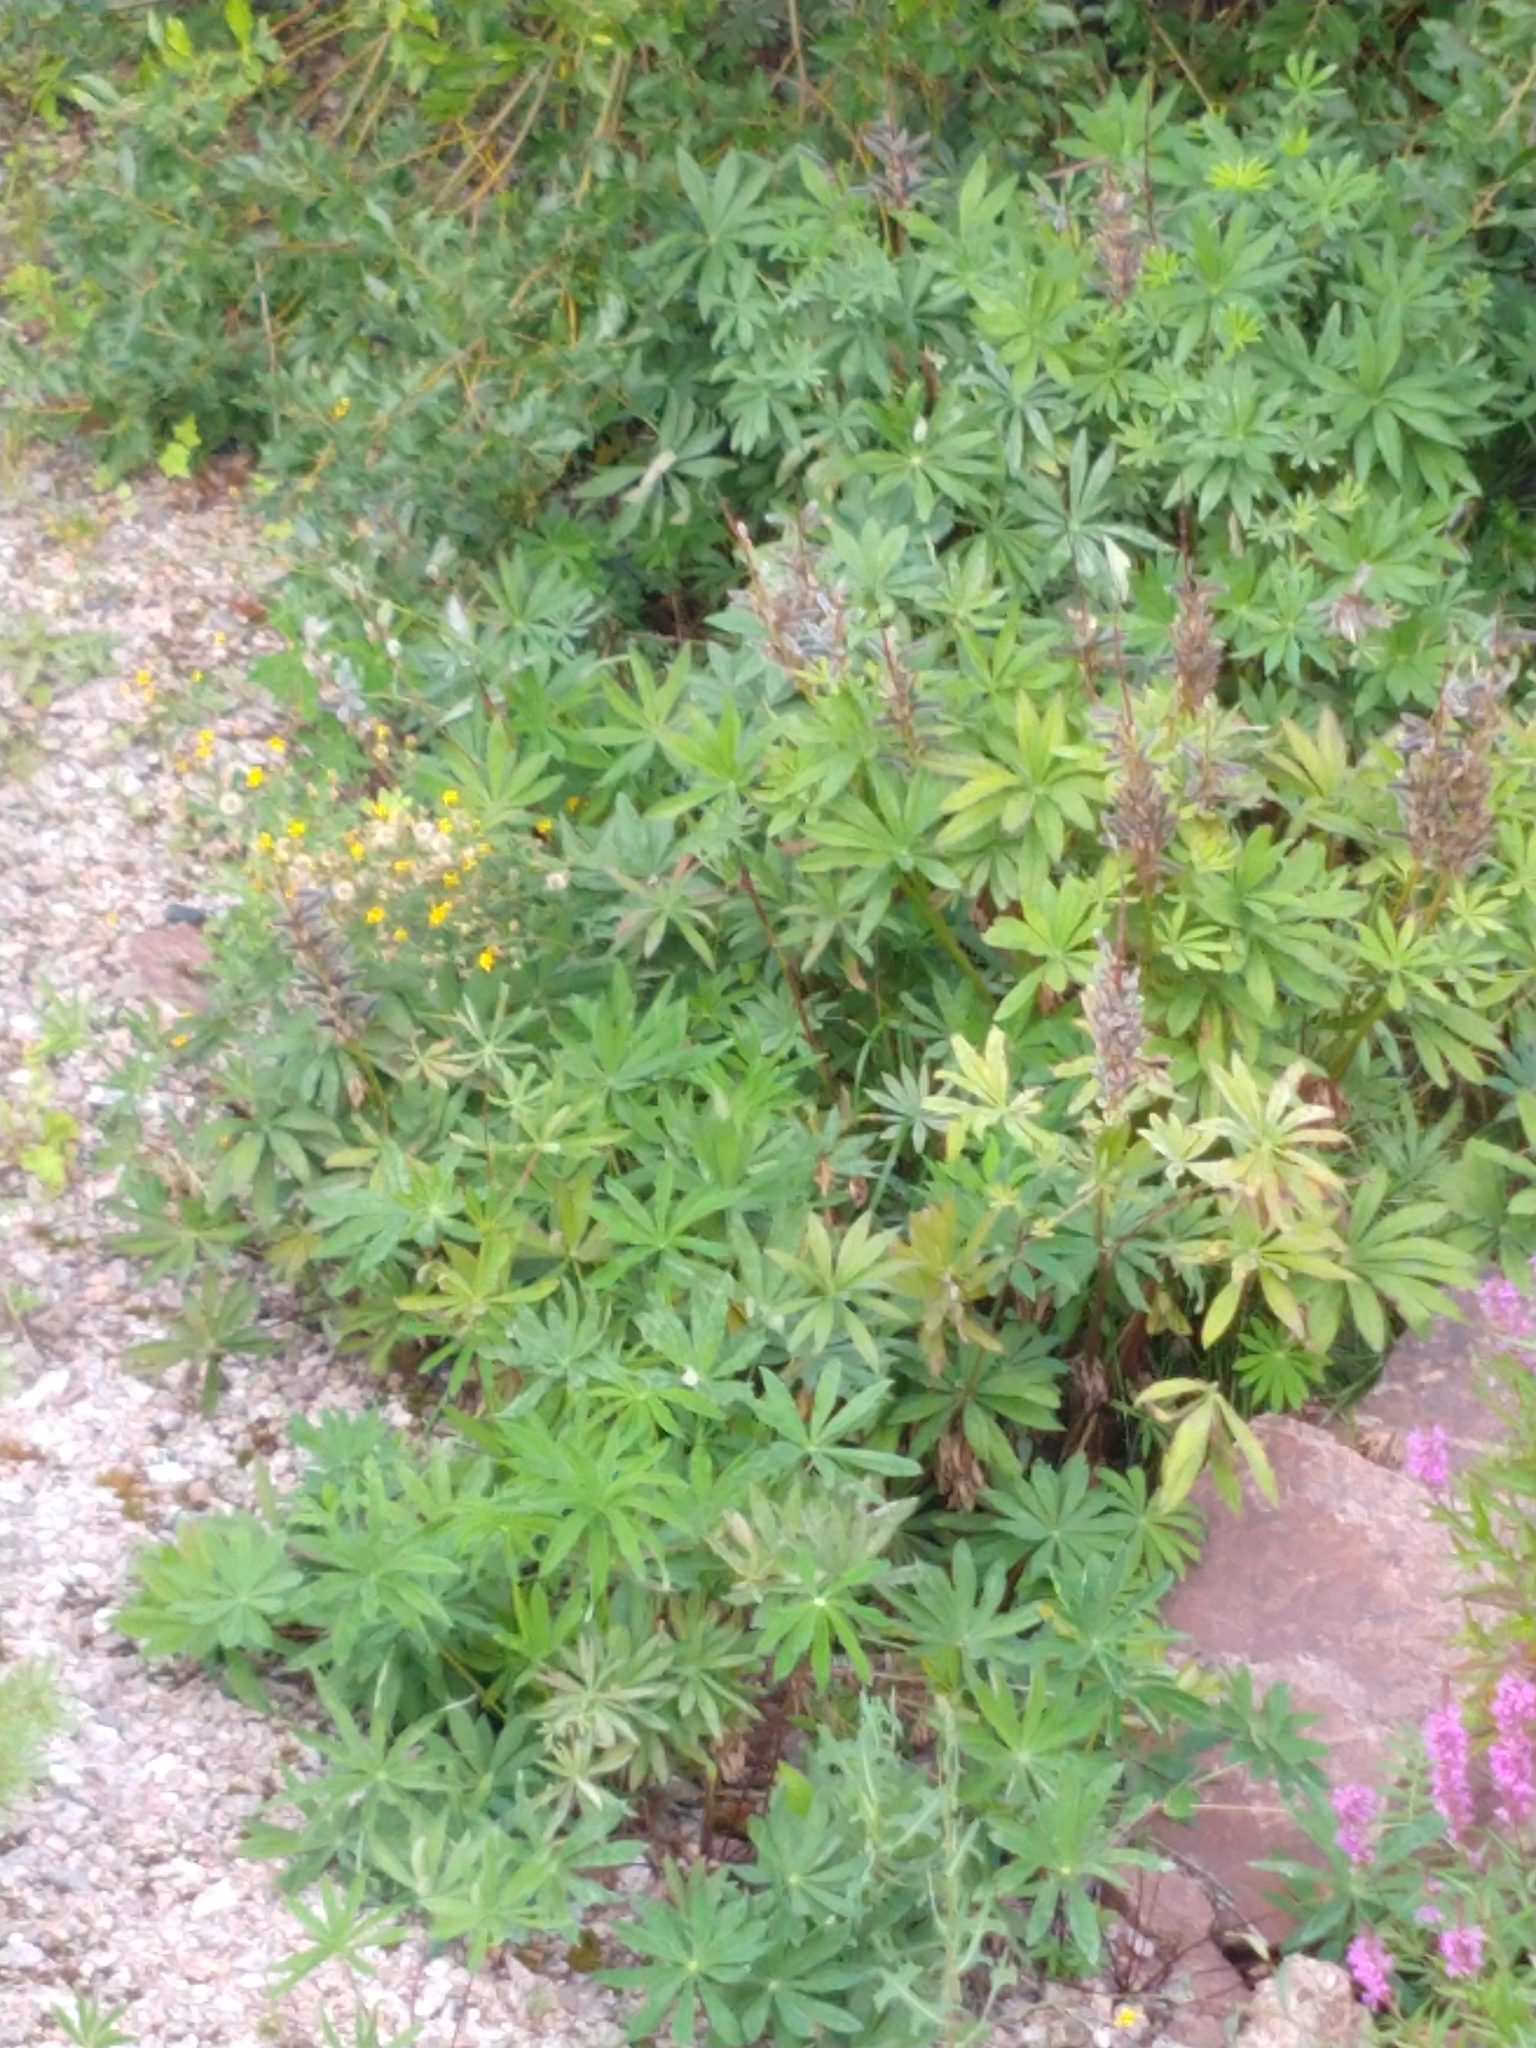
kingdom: Plantae
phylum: Tracheophyta
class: Magnoliopsida
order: Fabales
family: Fabaceae
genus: Lupinus
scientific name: Lupinus polyphyllus
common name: Garden lupin
